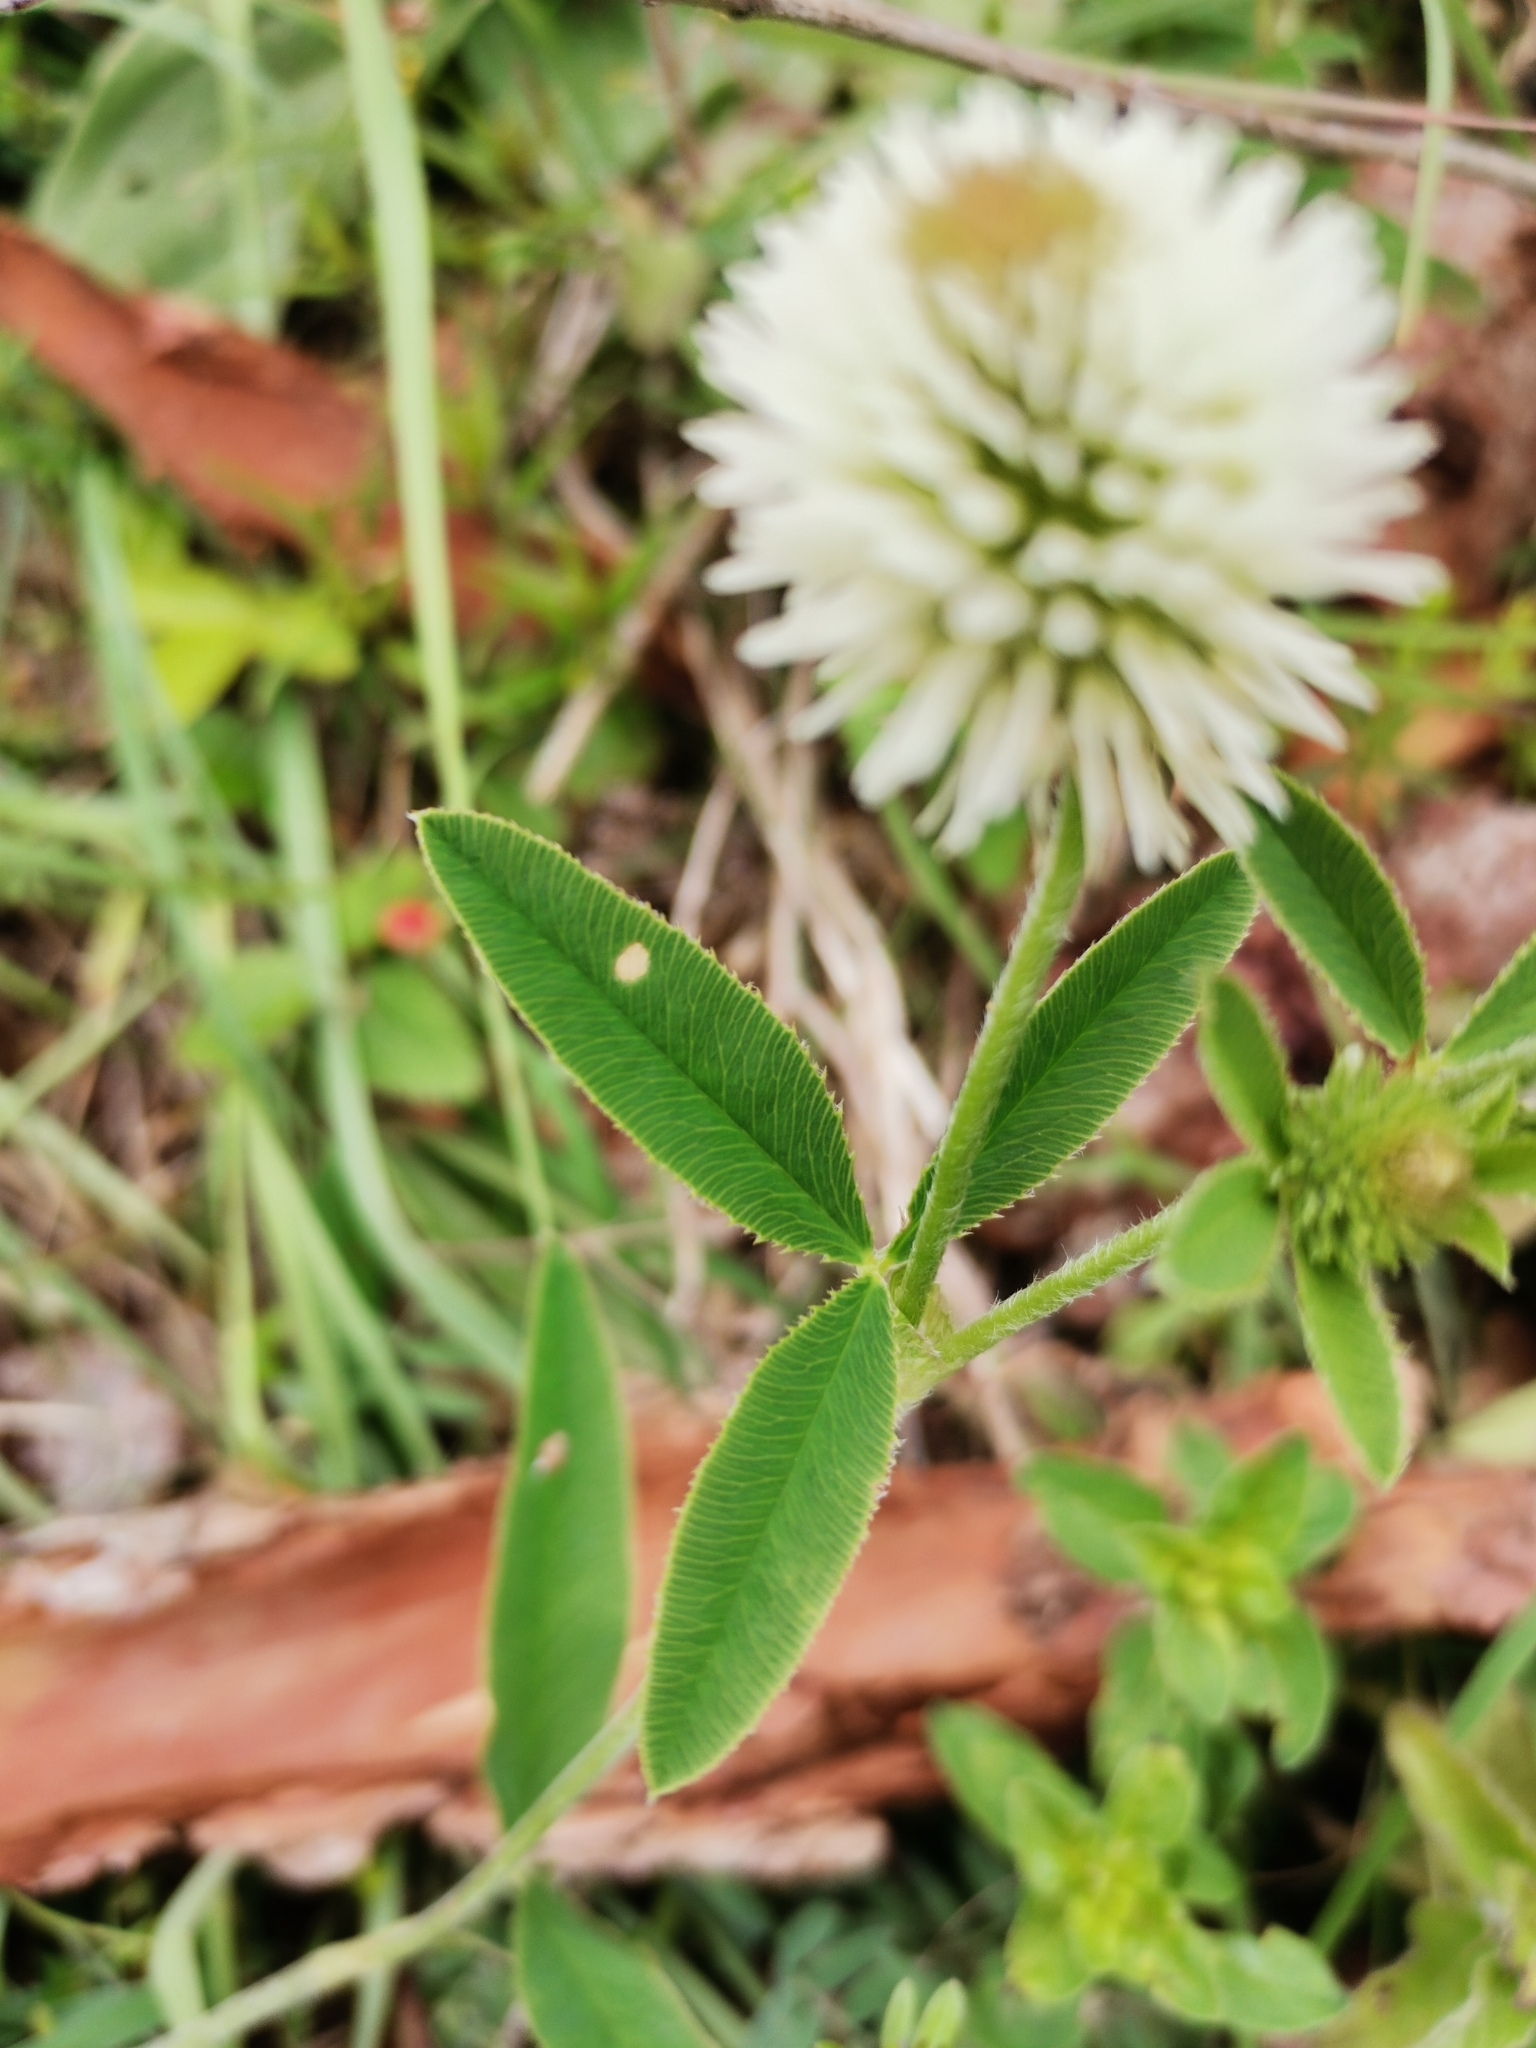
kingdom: Plantae
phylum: Tracheophyta
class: Magnoliopsida
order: Fabales
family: Fabaceae
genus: Trifolium
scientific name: Trifolium montanum
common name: Mountain clover
